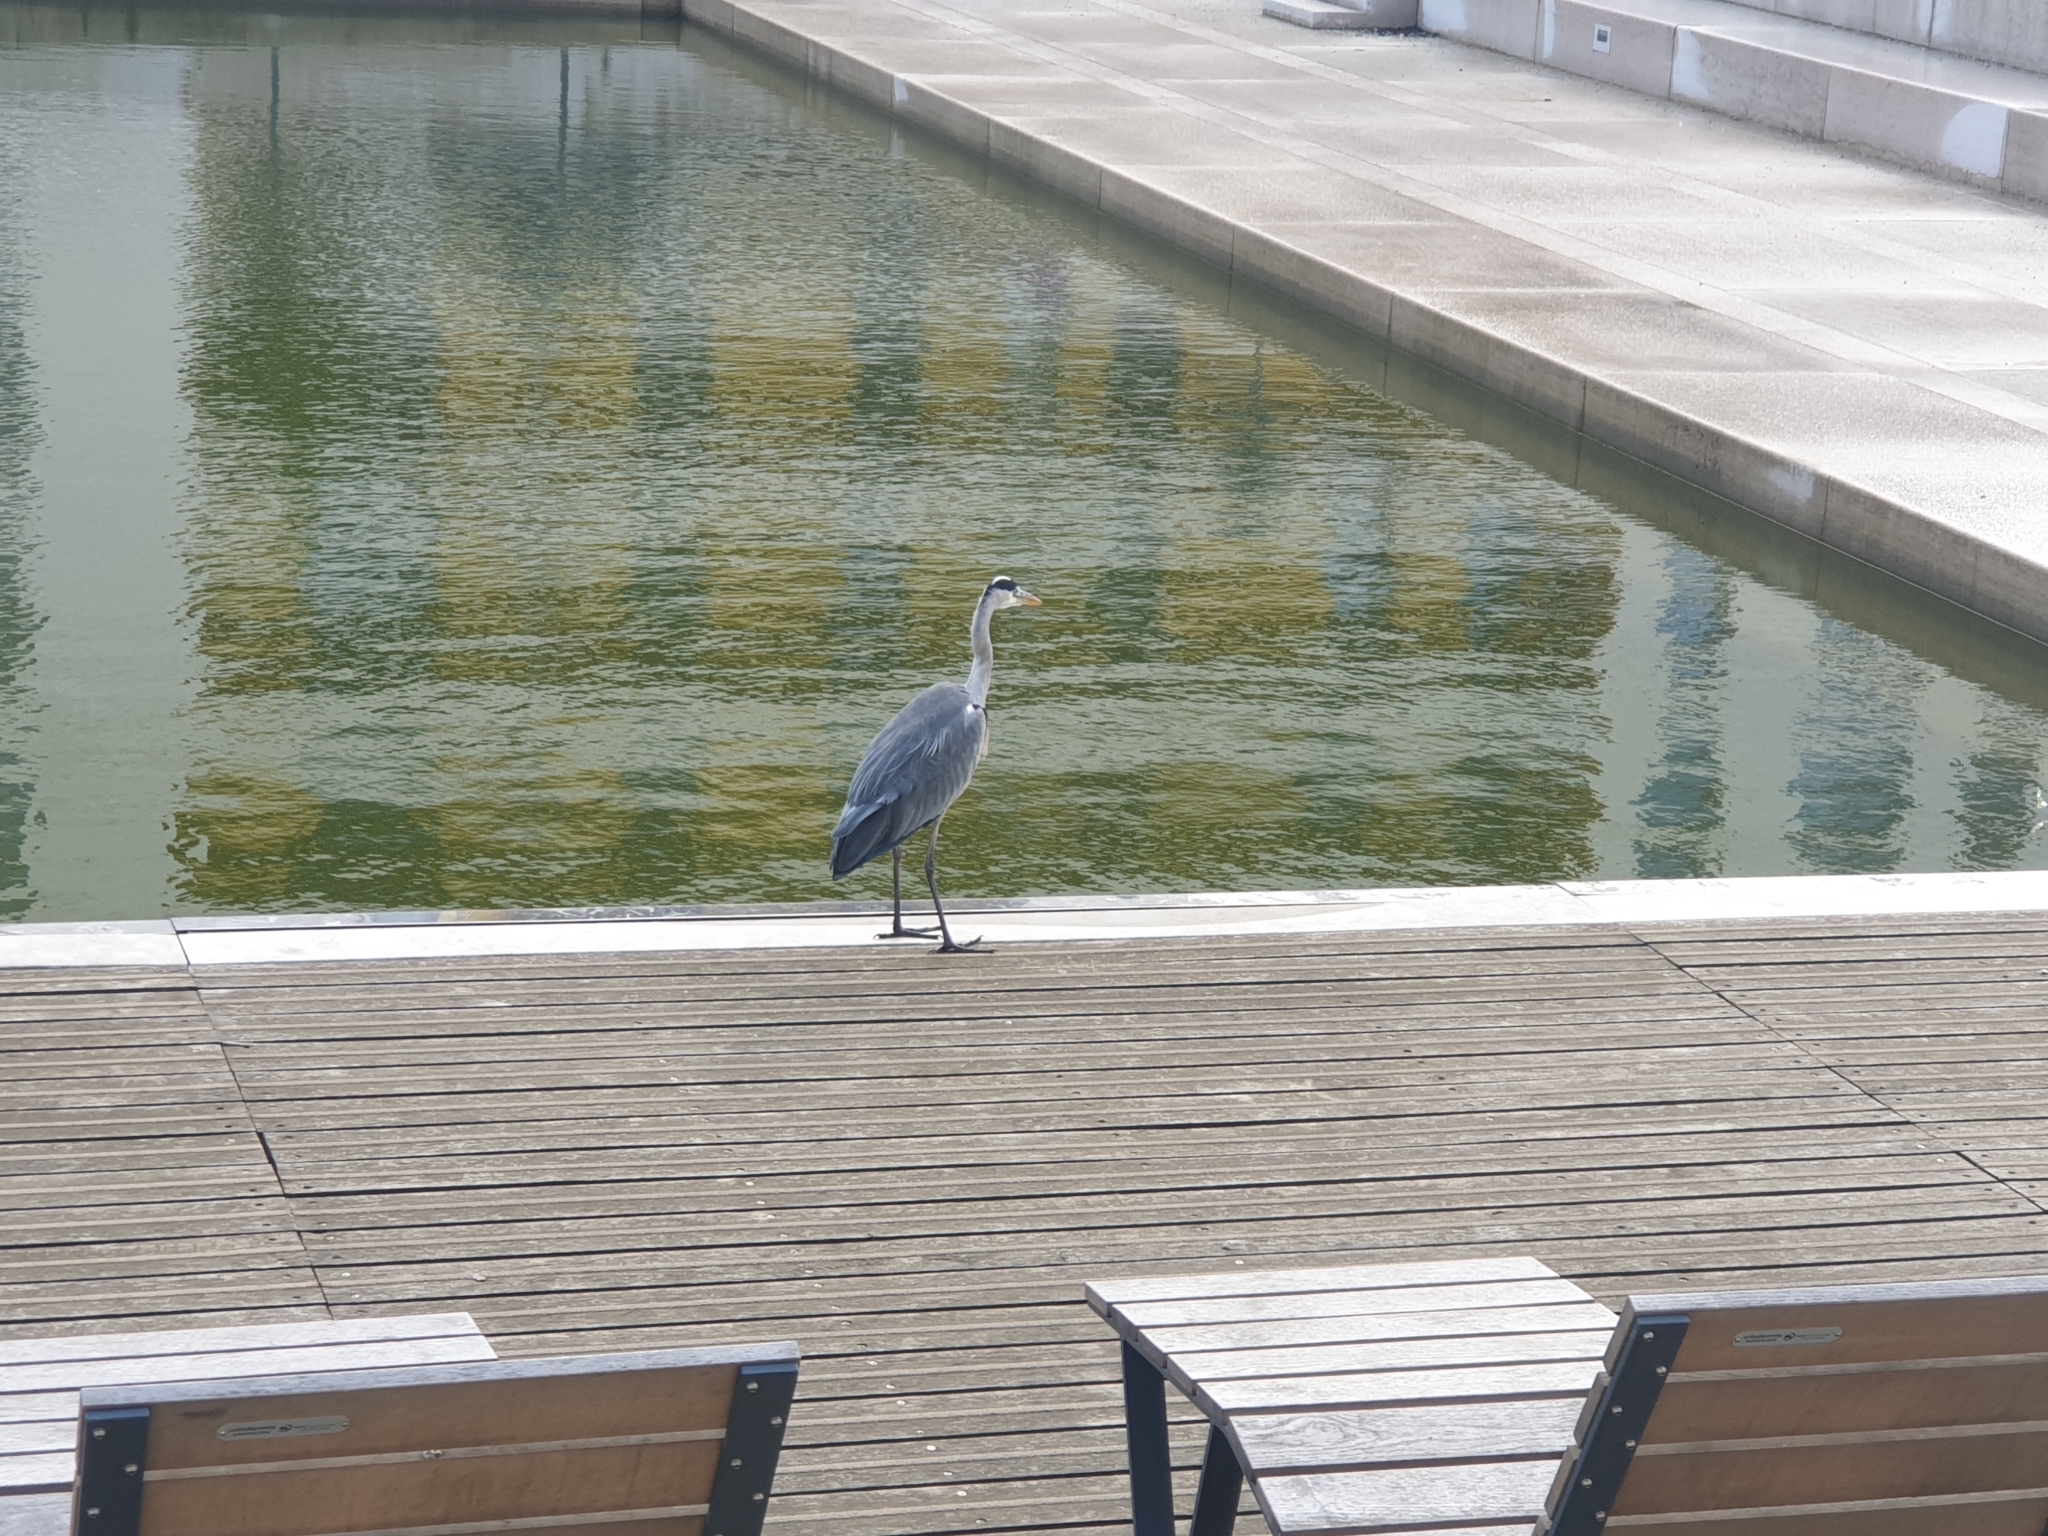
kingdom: Animalia
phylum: Chordata
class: Aves
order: Pelecaniformes
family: Ardeidae
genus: Ardea
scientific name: Ardea cinerea
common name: Grey heron
